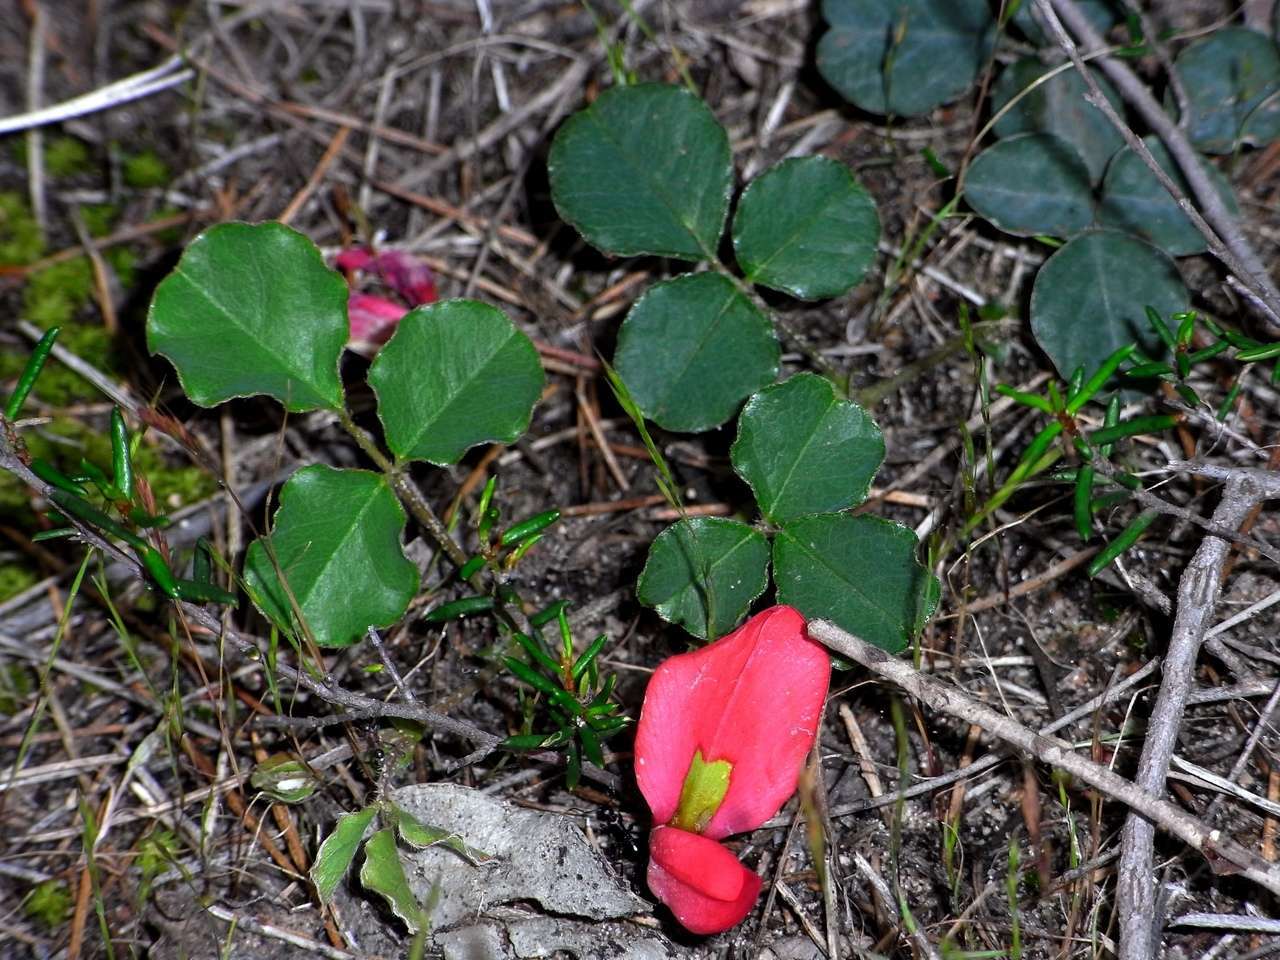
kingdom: Plantae
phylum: Tracheophyta
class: Magnoliopsida
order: Fabales
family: Fabaceae
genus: Kennedia
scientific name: Kennedia prostrata
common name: Running-postman
